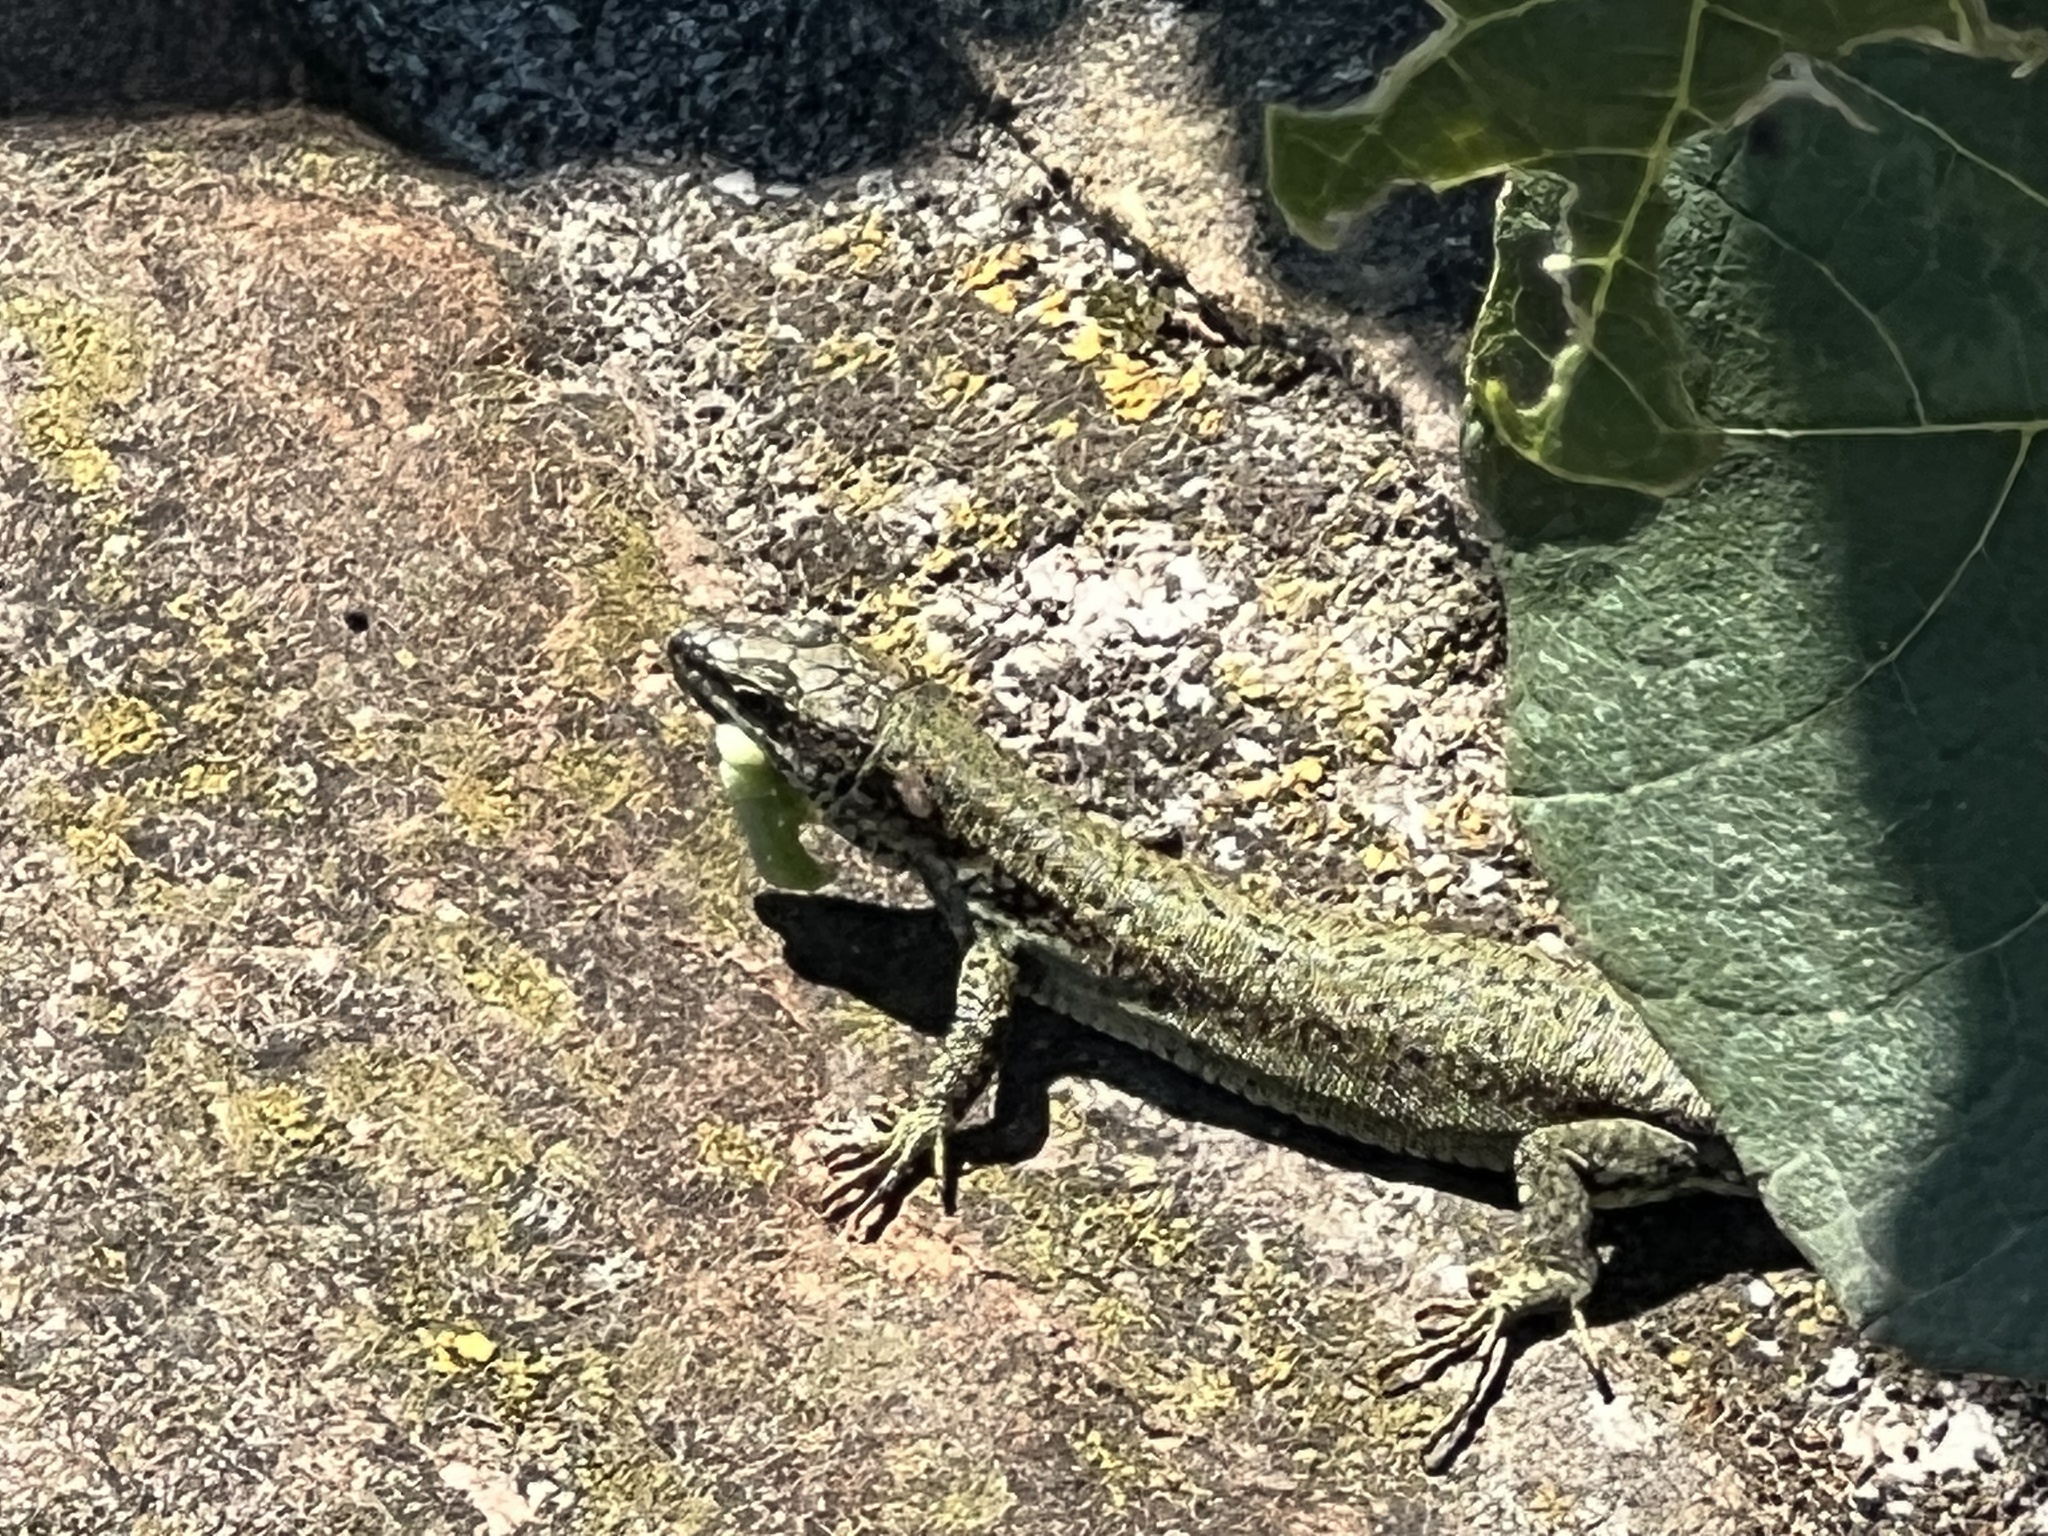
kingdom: Animalia
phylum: Chordata
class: Squamata
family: Lacertidae
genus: Podarcis
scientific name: Podarcis muralis
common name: Common wall lizard
